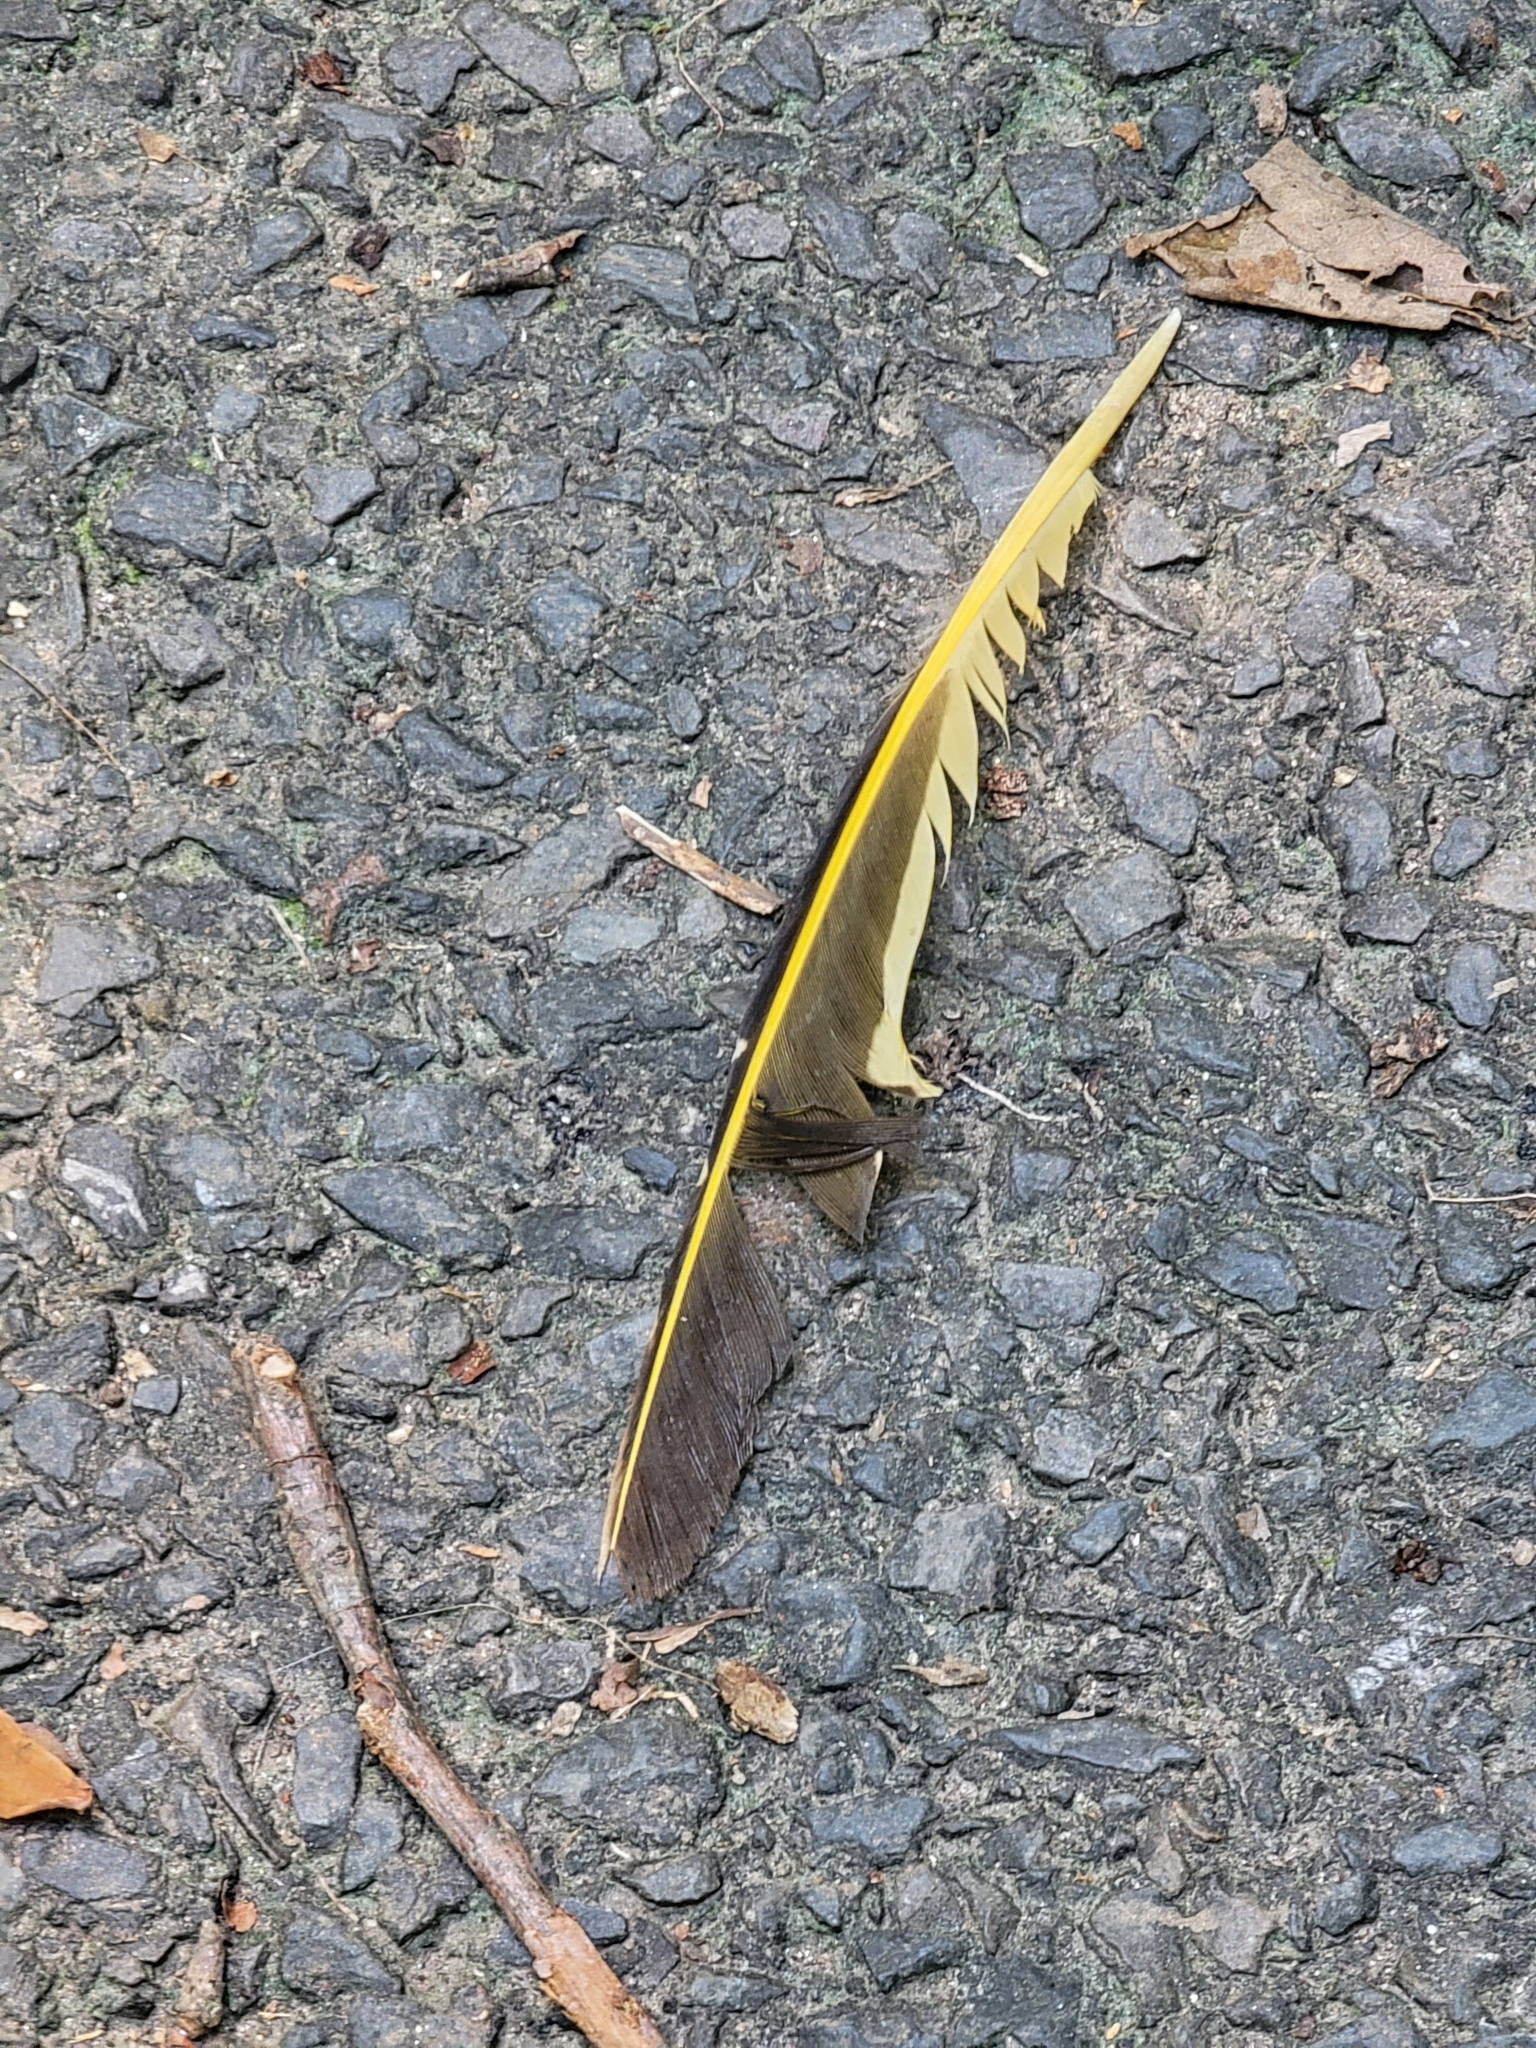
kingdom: Animalia
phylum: Chordata
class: Aves
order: Piciformes
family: Picidae
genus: Colaptes
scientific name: Colaptes auratus
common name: Northern flicker
